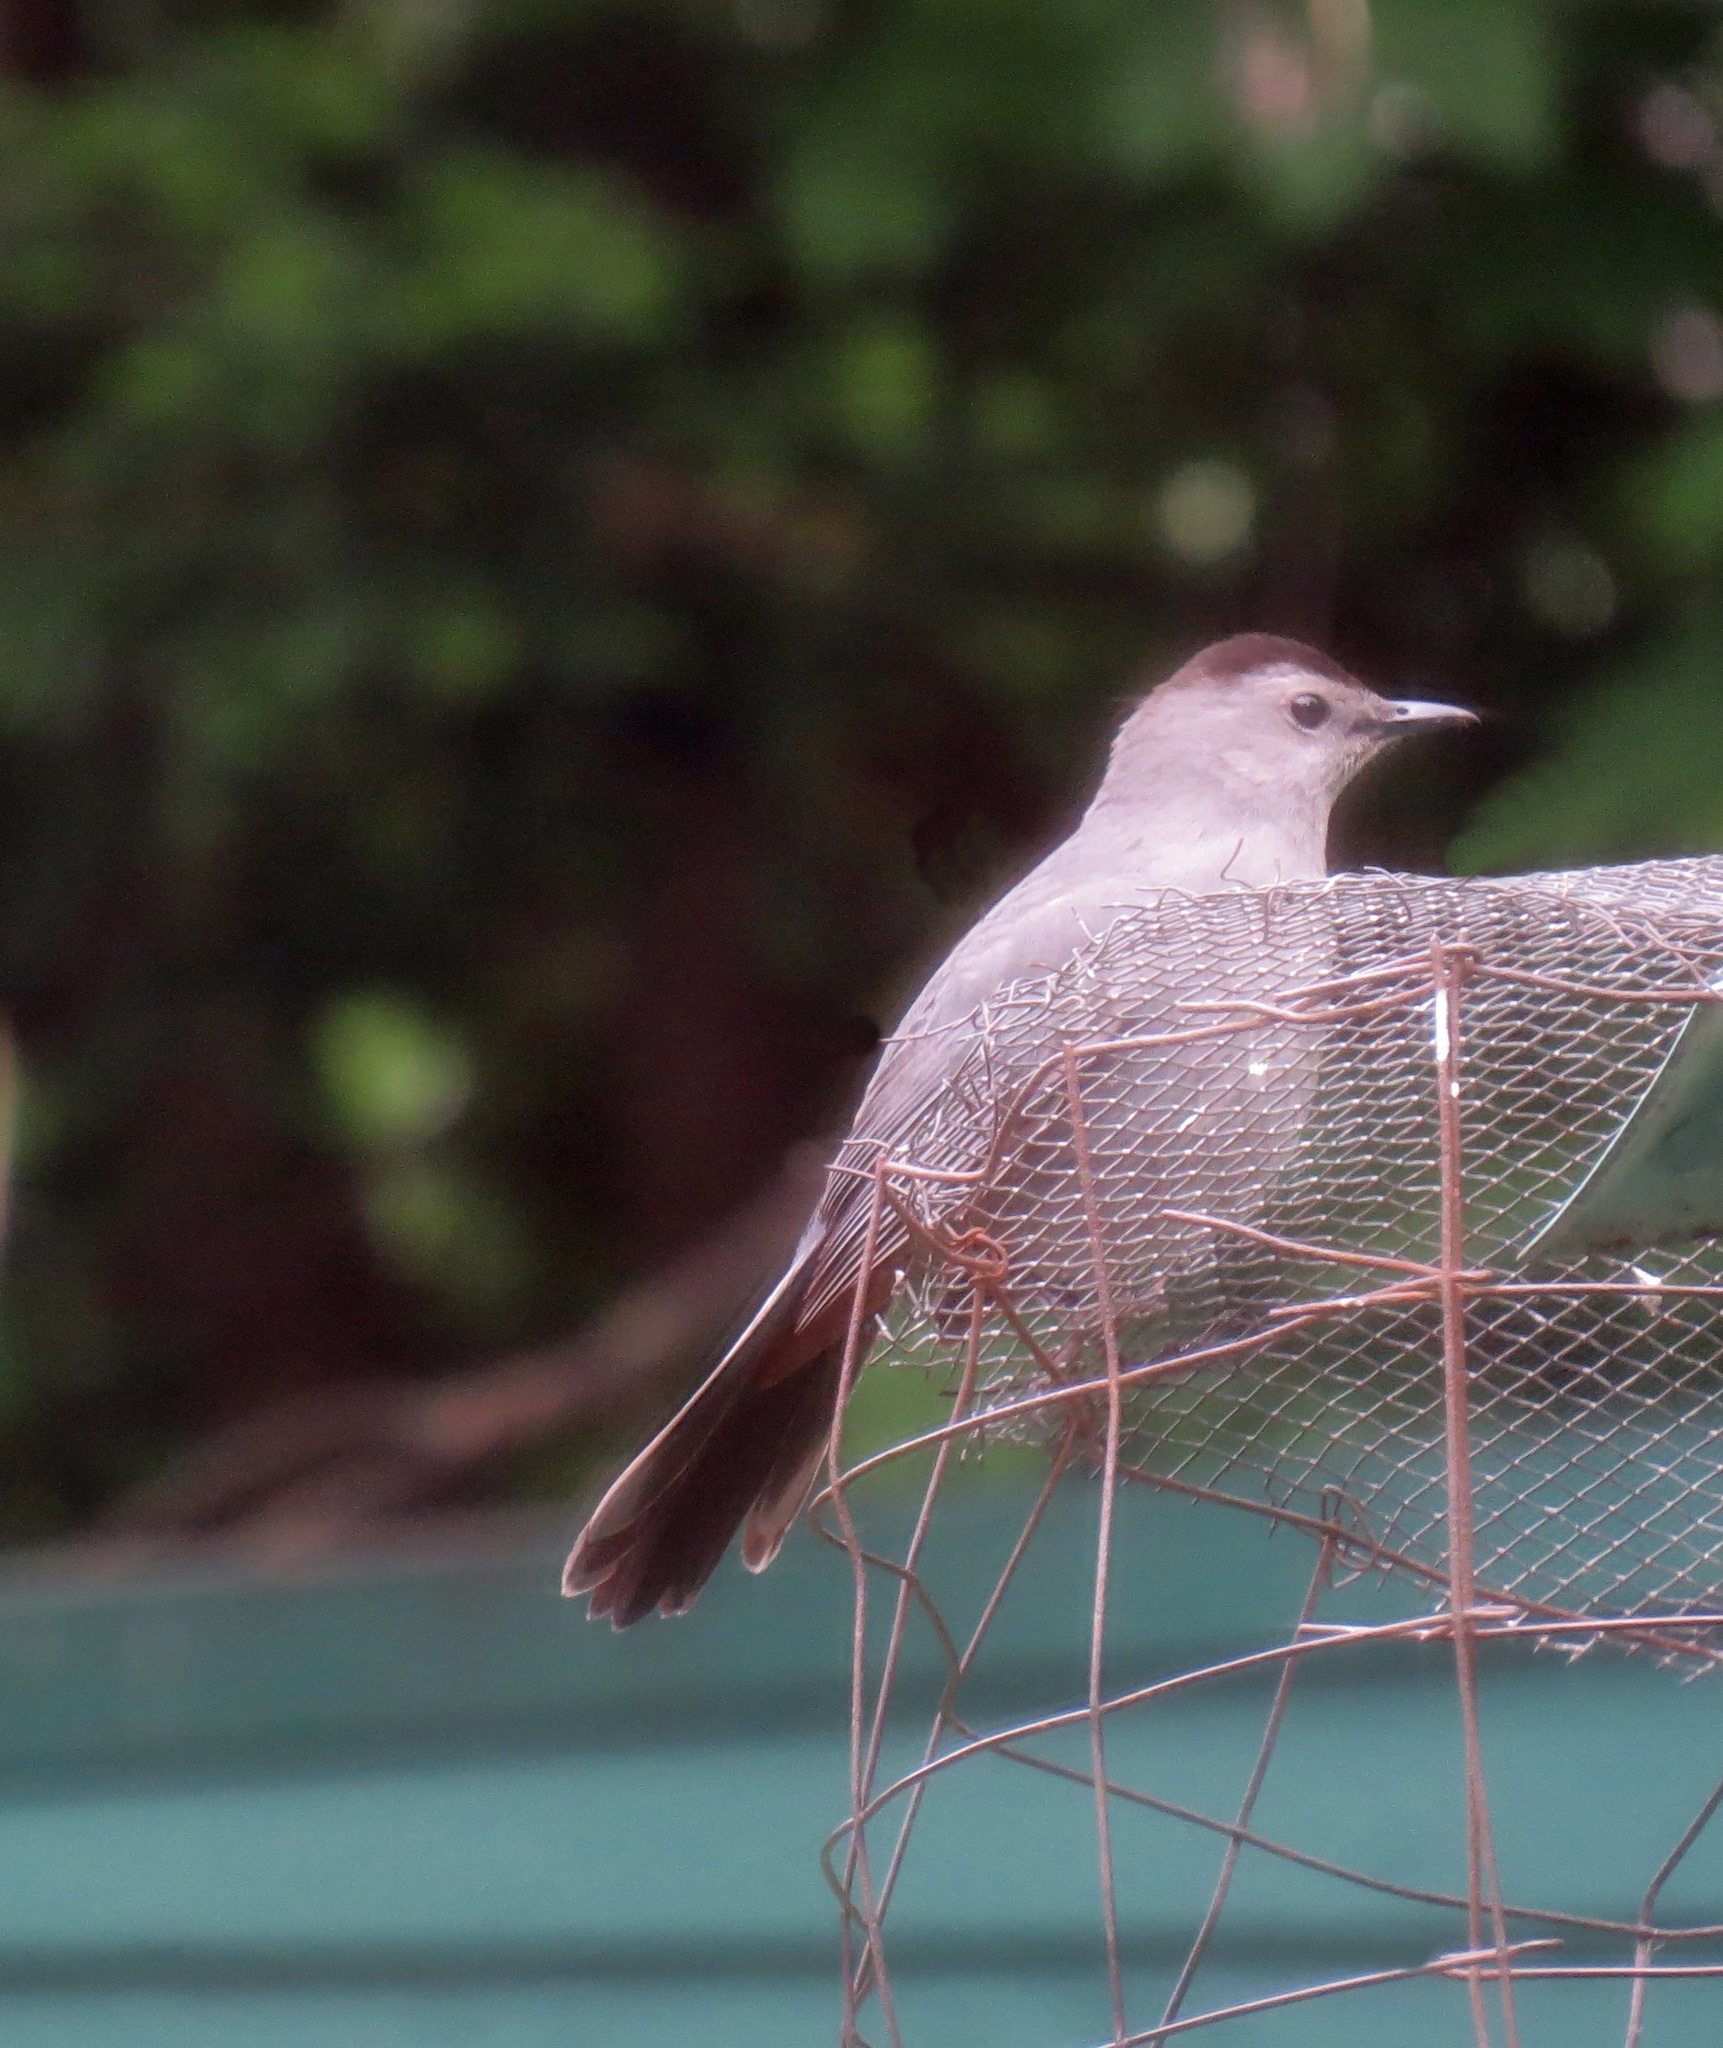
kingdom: Animalia
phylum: Chordata
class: Aves
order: Passeriformes
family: Mimidae
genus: Dumetella
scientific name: Dumetella carolinensis
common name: Gray catbird
